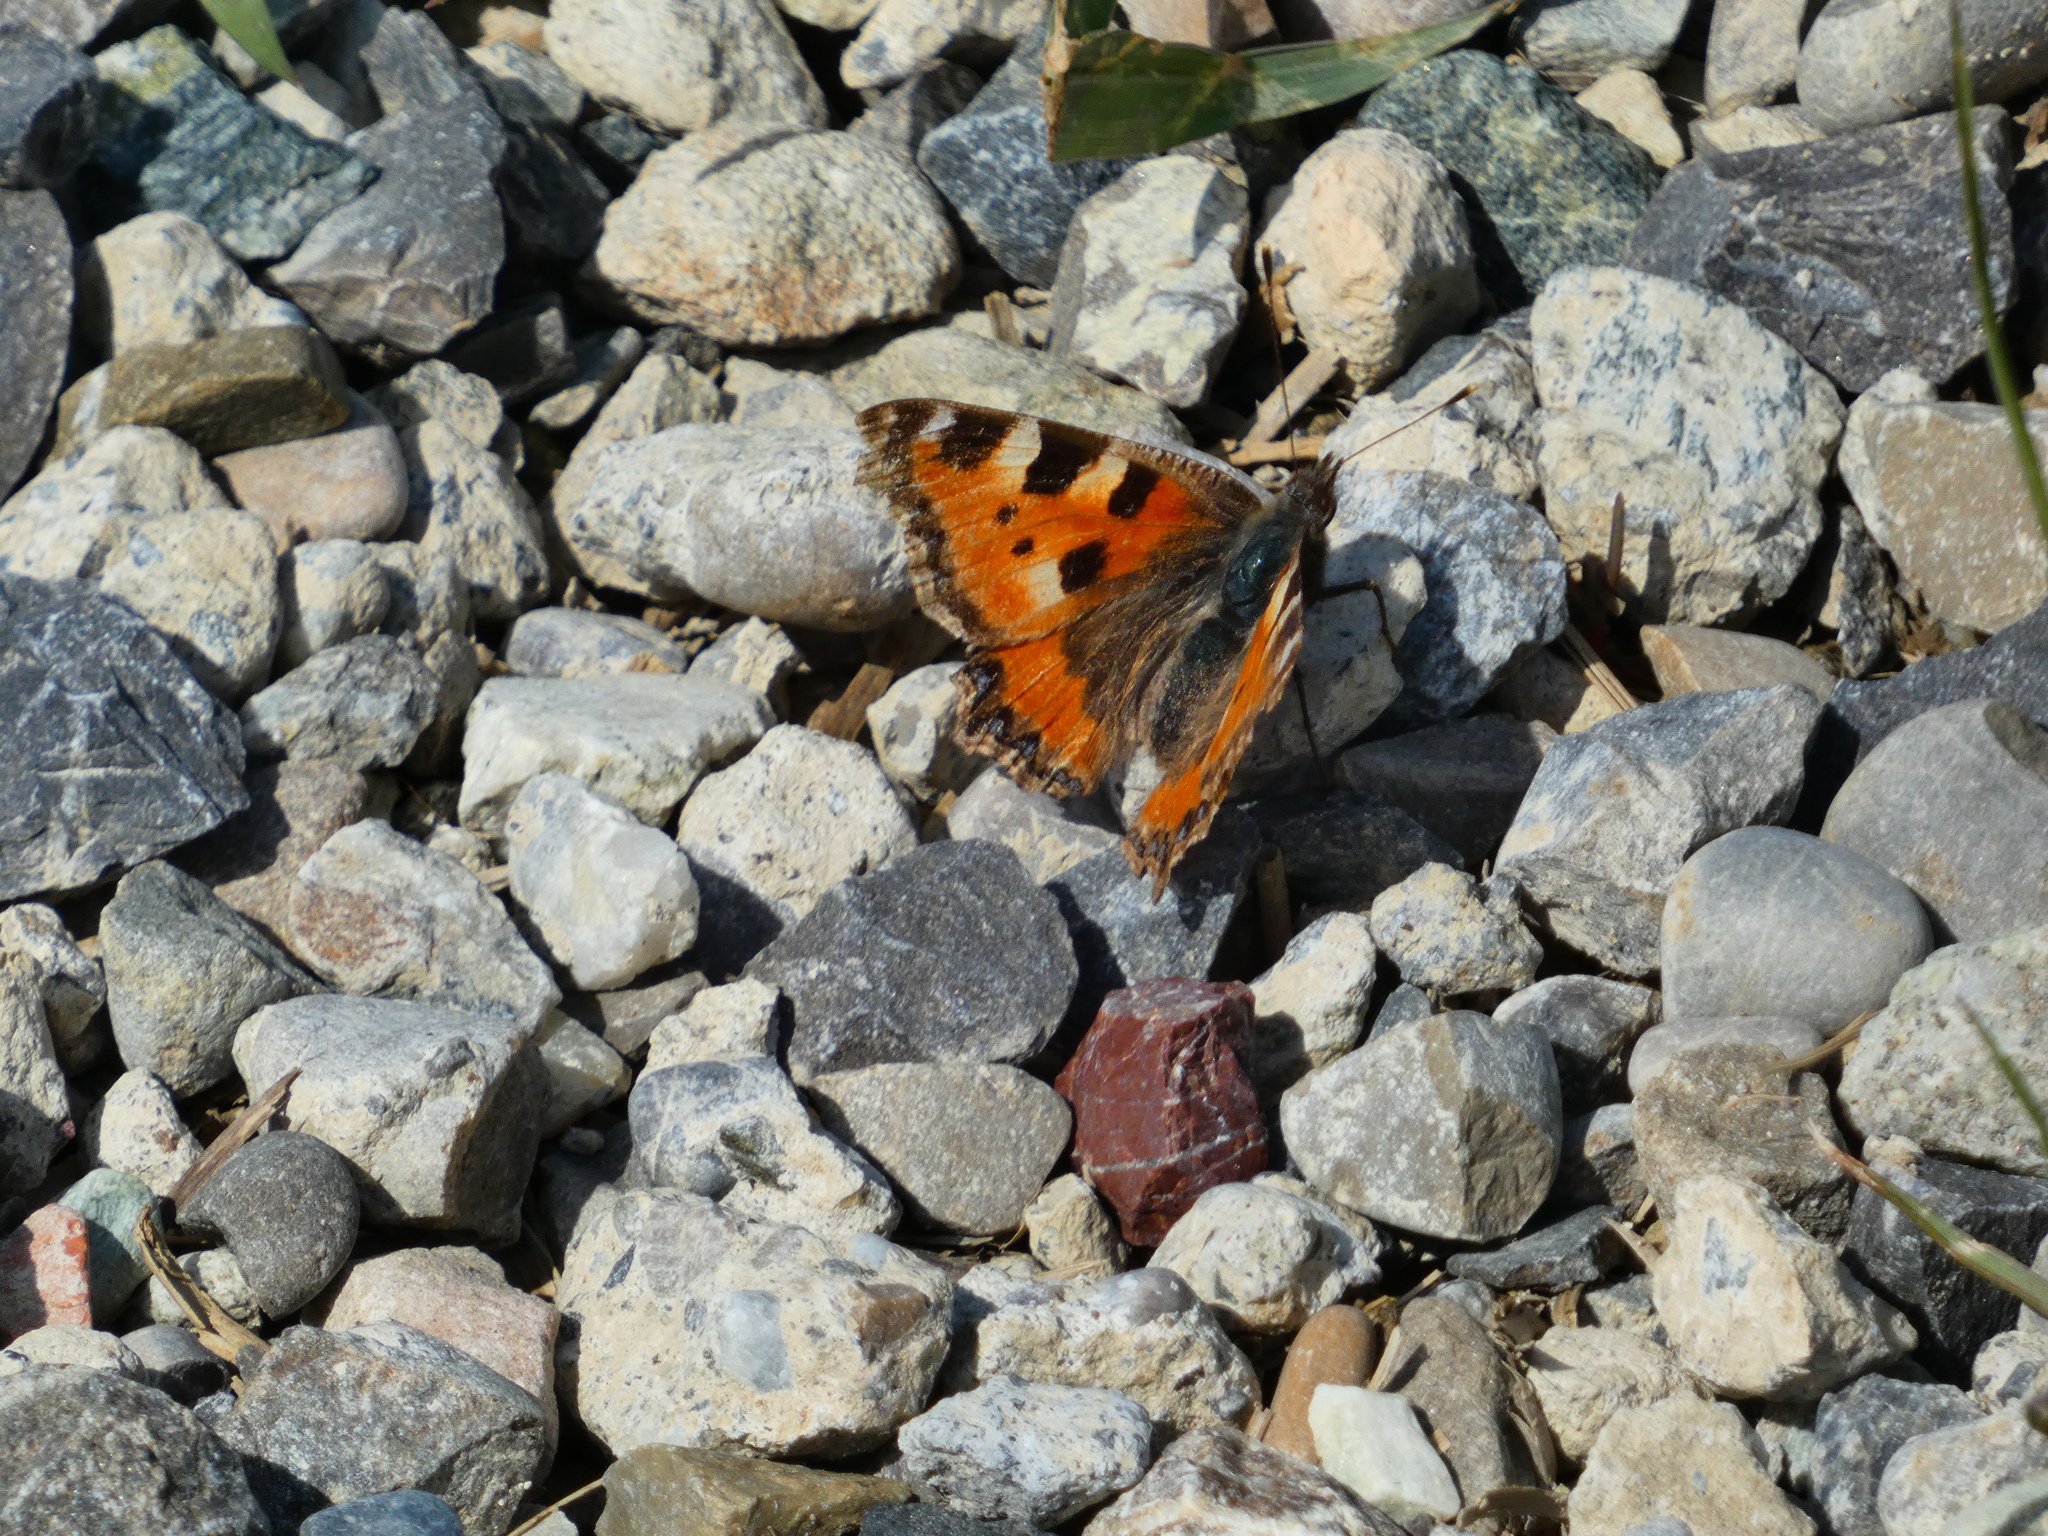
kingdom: Animalia
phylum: Arthropoda
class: Insecta
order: Lepidoptera
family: Nymphalidae
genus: Aglais
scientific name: Aglais urticae
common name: Small tortoiseshell
